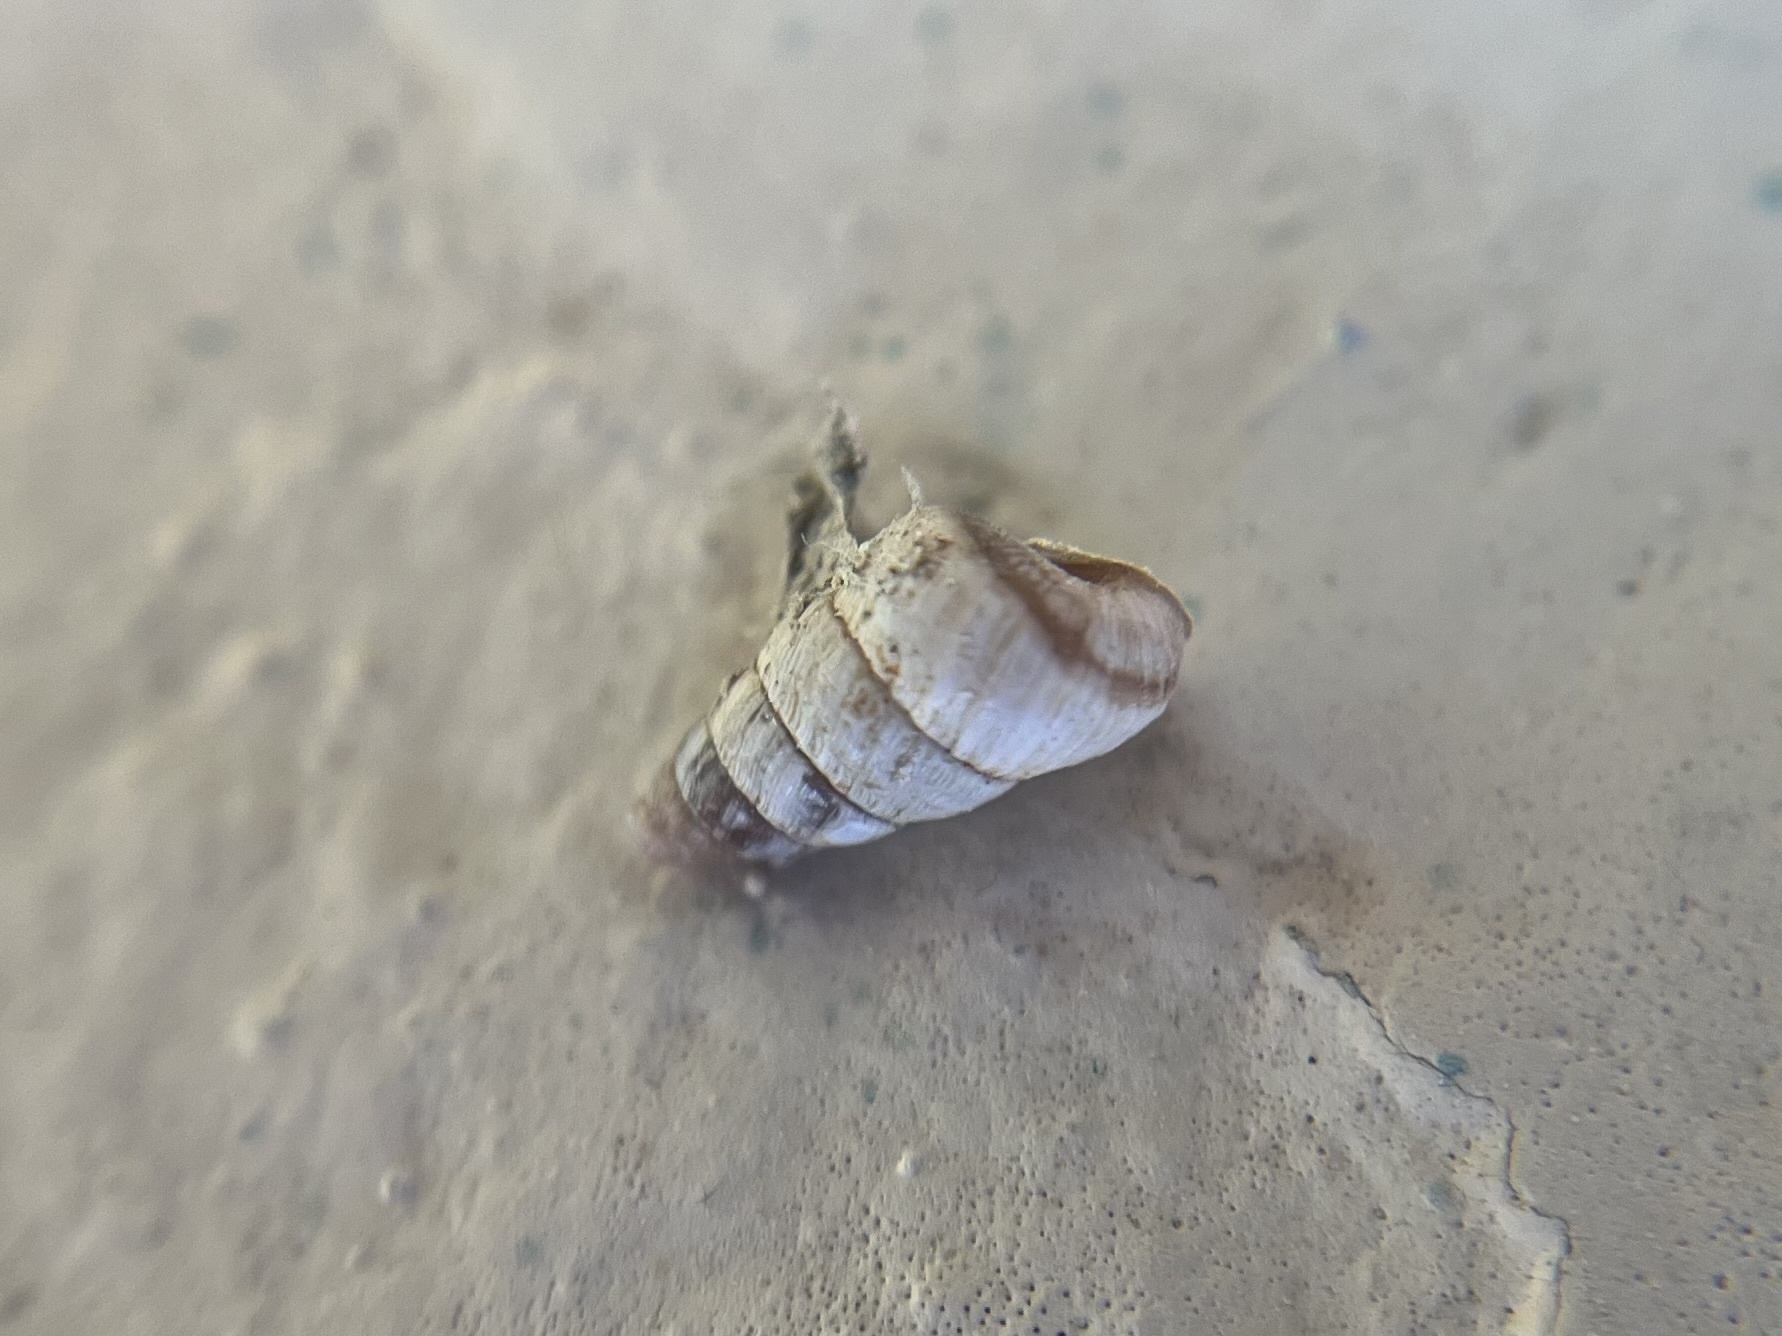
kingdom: Animalia
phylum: Mollusca
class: Gastropoda
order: Stylommatophora
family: Geomitridae
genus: Cochlicella
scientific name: Cochlicella barbara
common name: Potbellied helicellid
